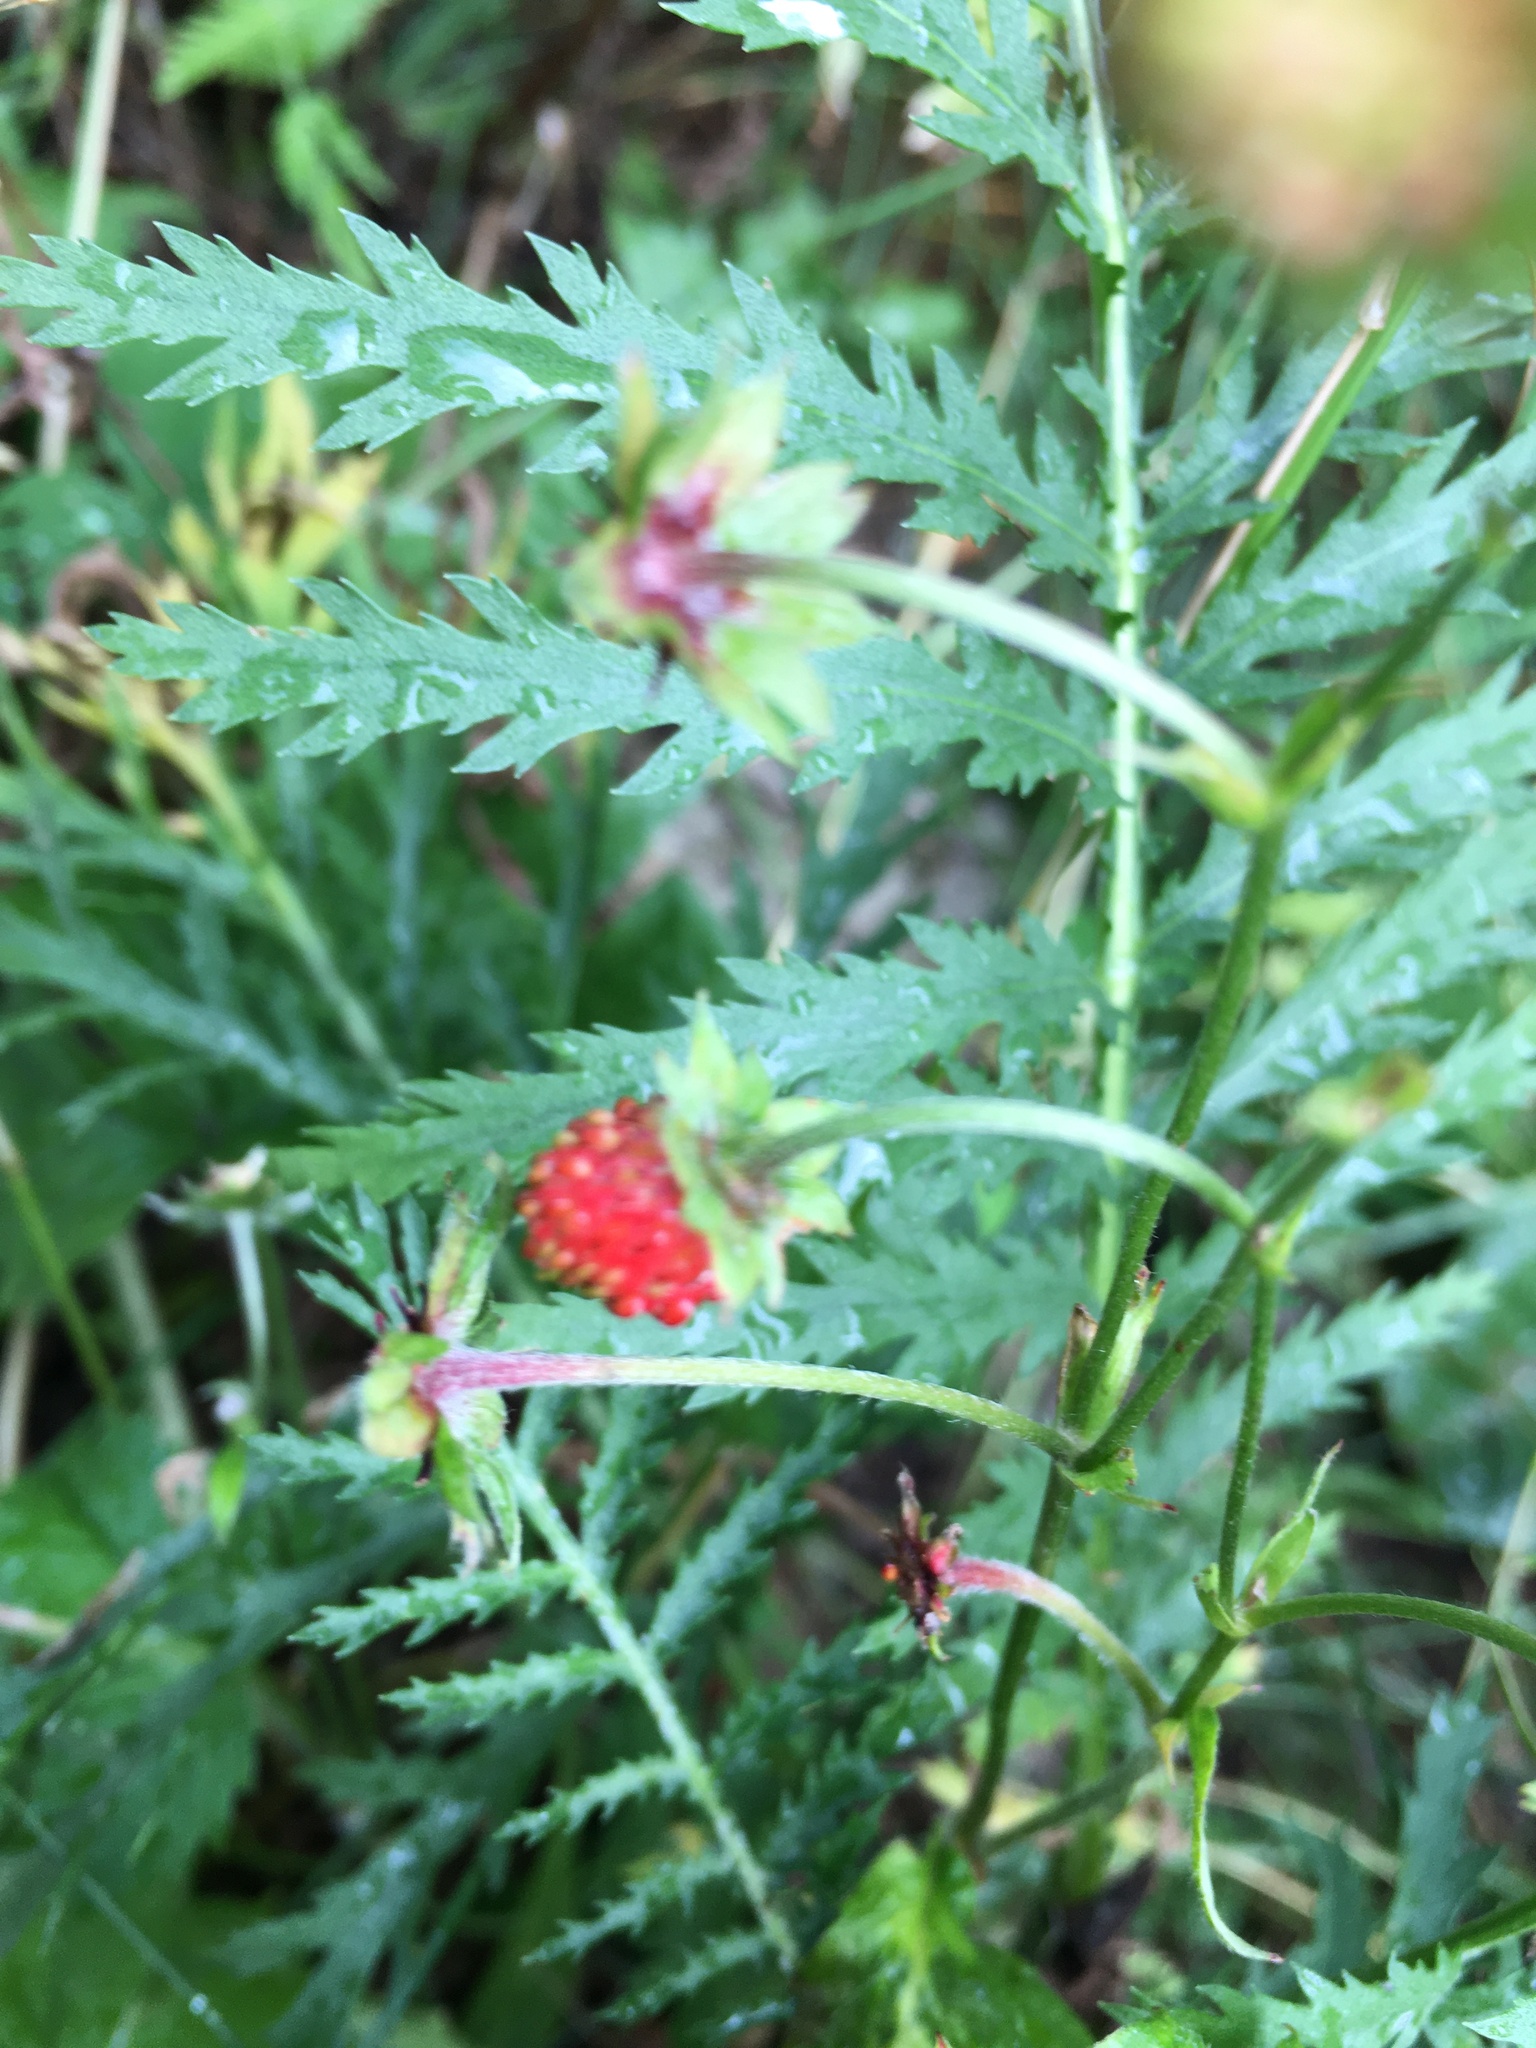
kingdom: Plantae
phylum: Tracheophyta
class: Magnoliopsida
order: Rosales
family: Rosaceae
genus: Fragaria
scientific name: Fragaria vesca
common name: Wild strawberry
